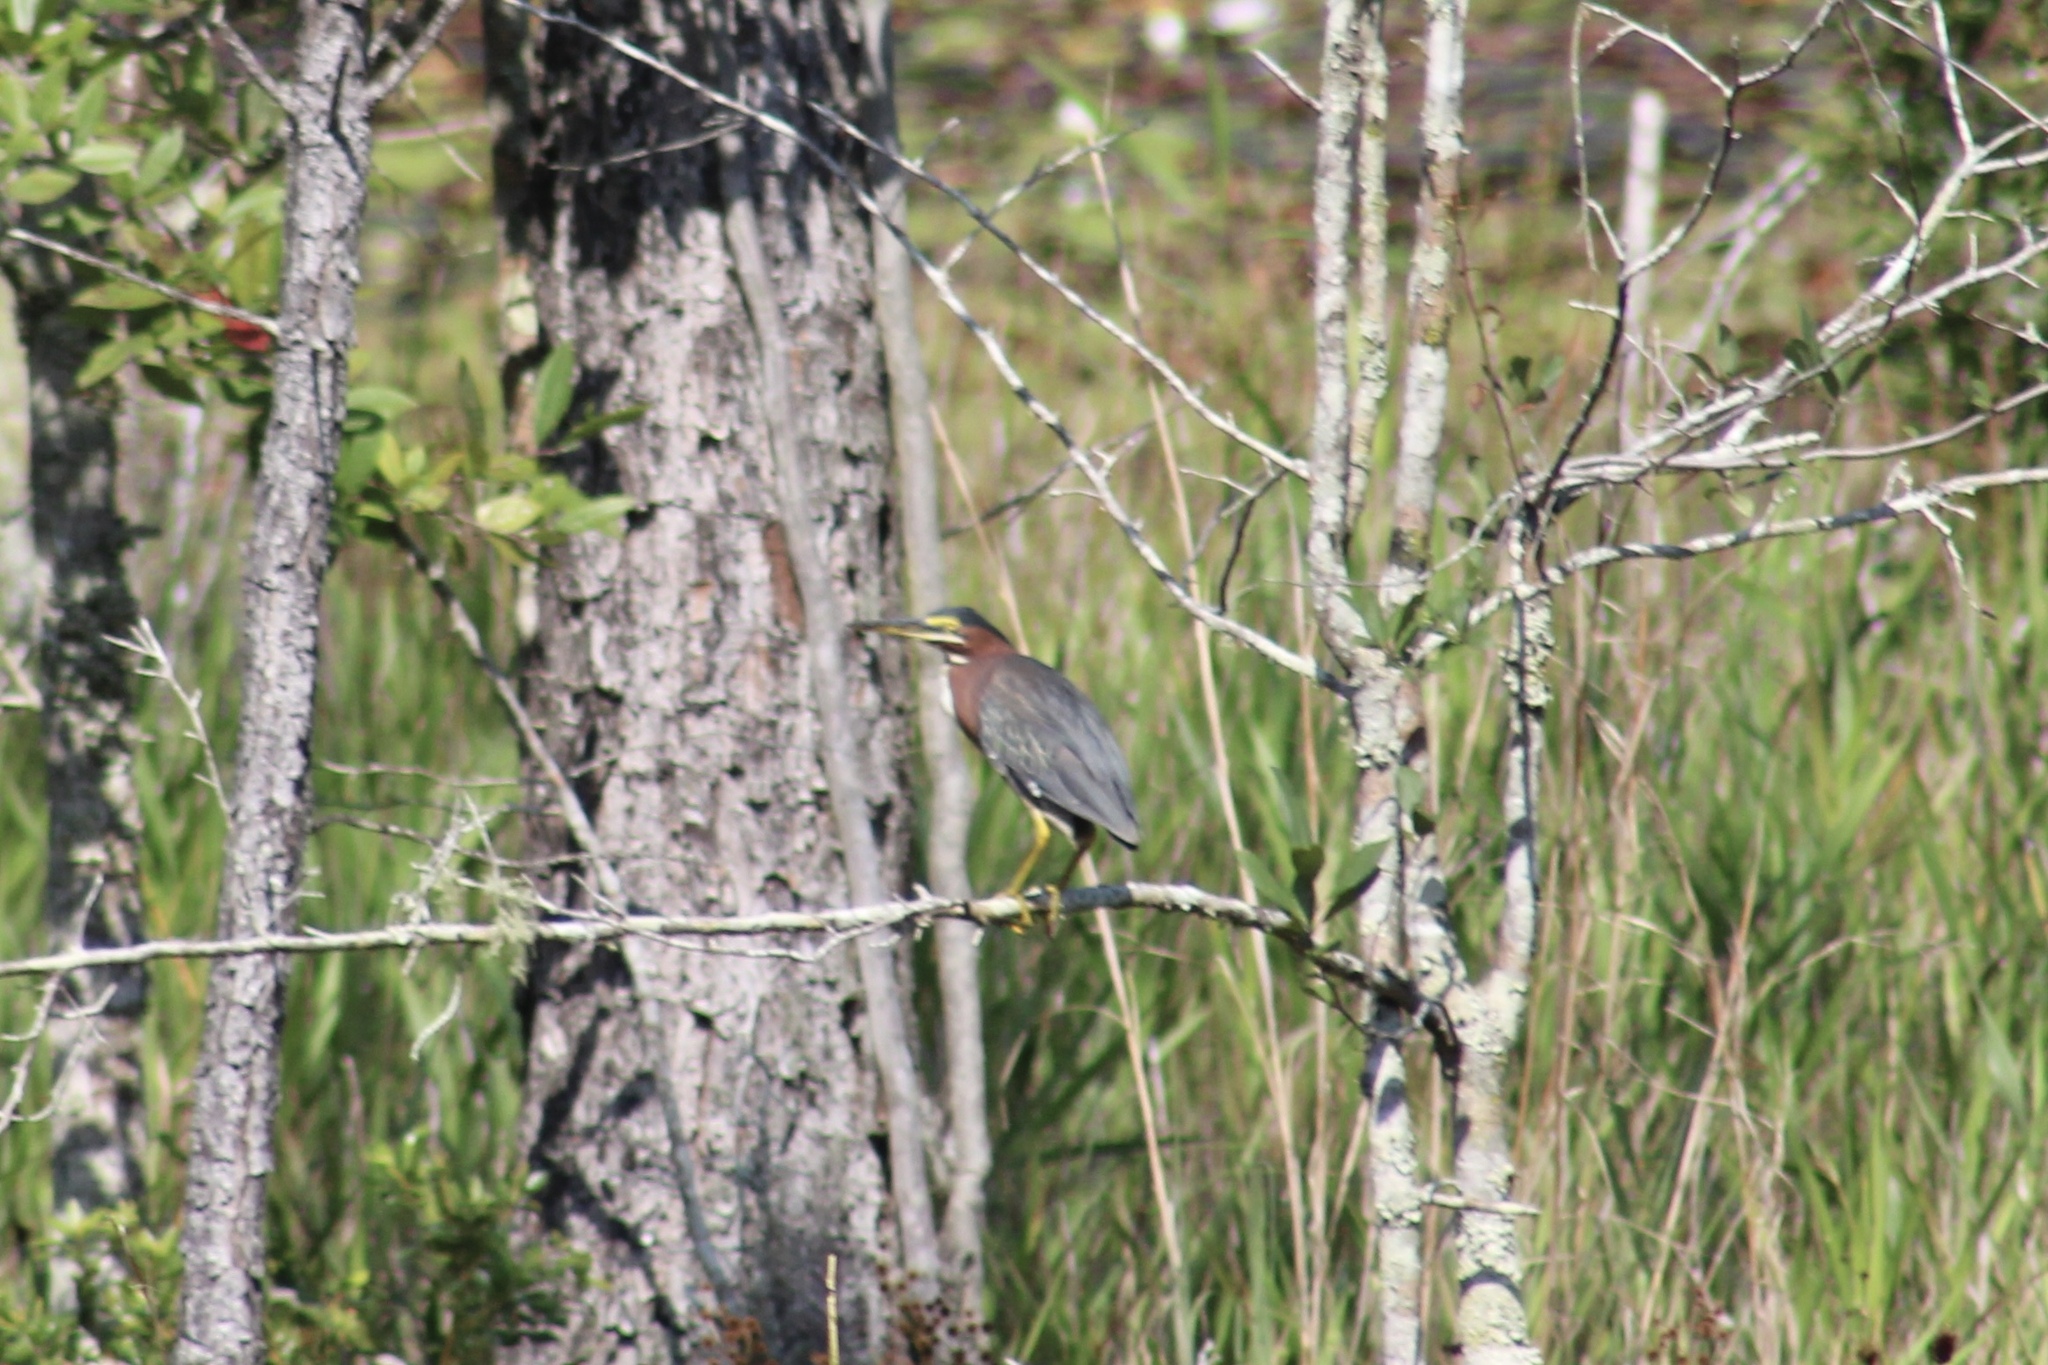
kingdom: Animalia
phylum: Chordata
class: Aves
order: Pelecaniformes
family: Ardeidae
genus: Butorides
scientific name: Butorides virescens
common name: Green heron
